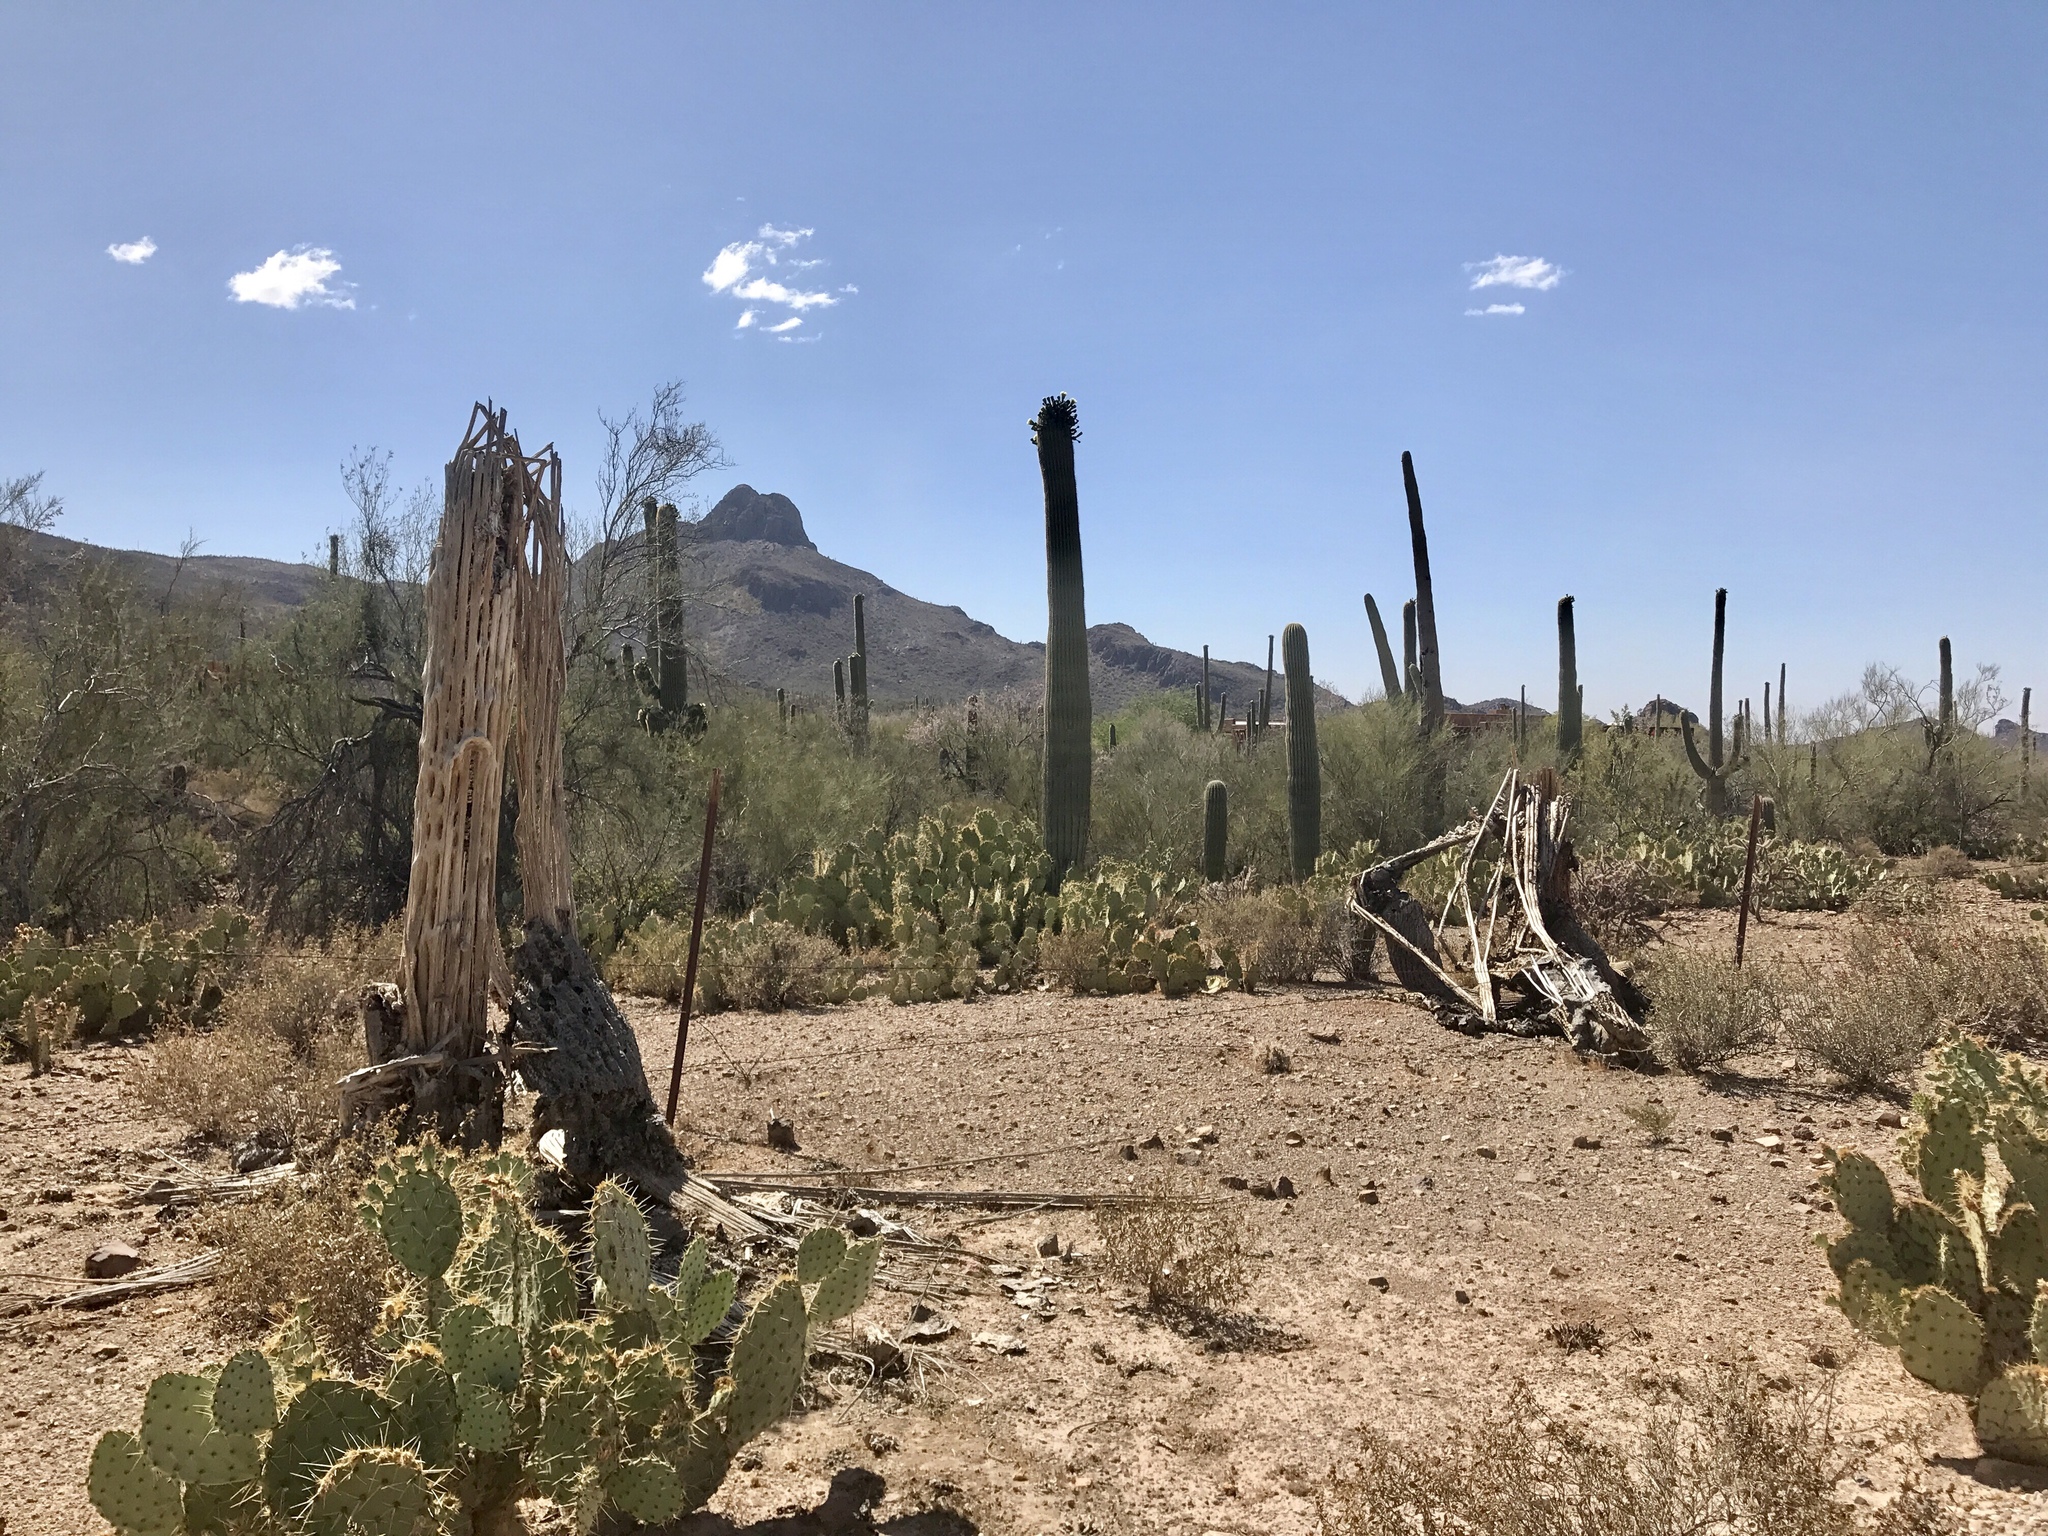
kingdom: Plantae
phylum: Tracheophyta
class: Magnoliopsida
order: Caryophyllales
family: Cactaceae
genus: Carnegiea
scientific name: Carnegiea gigantea
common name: Saguaro
